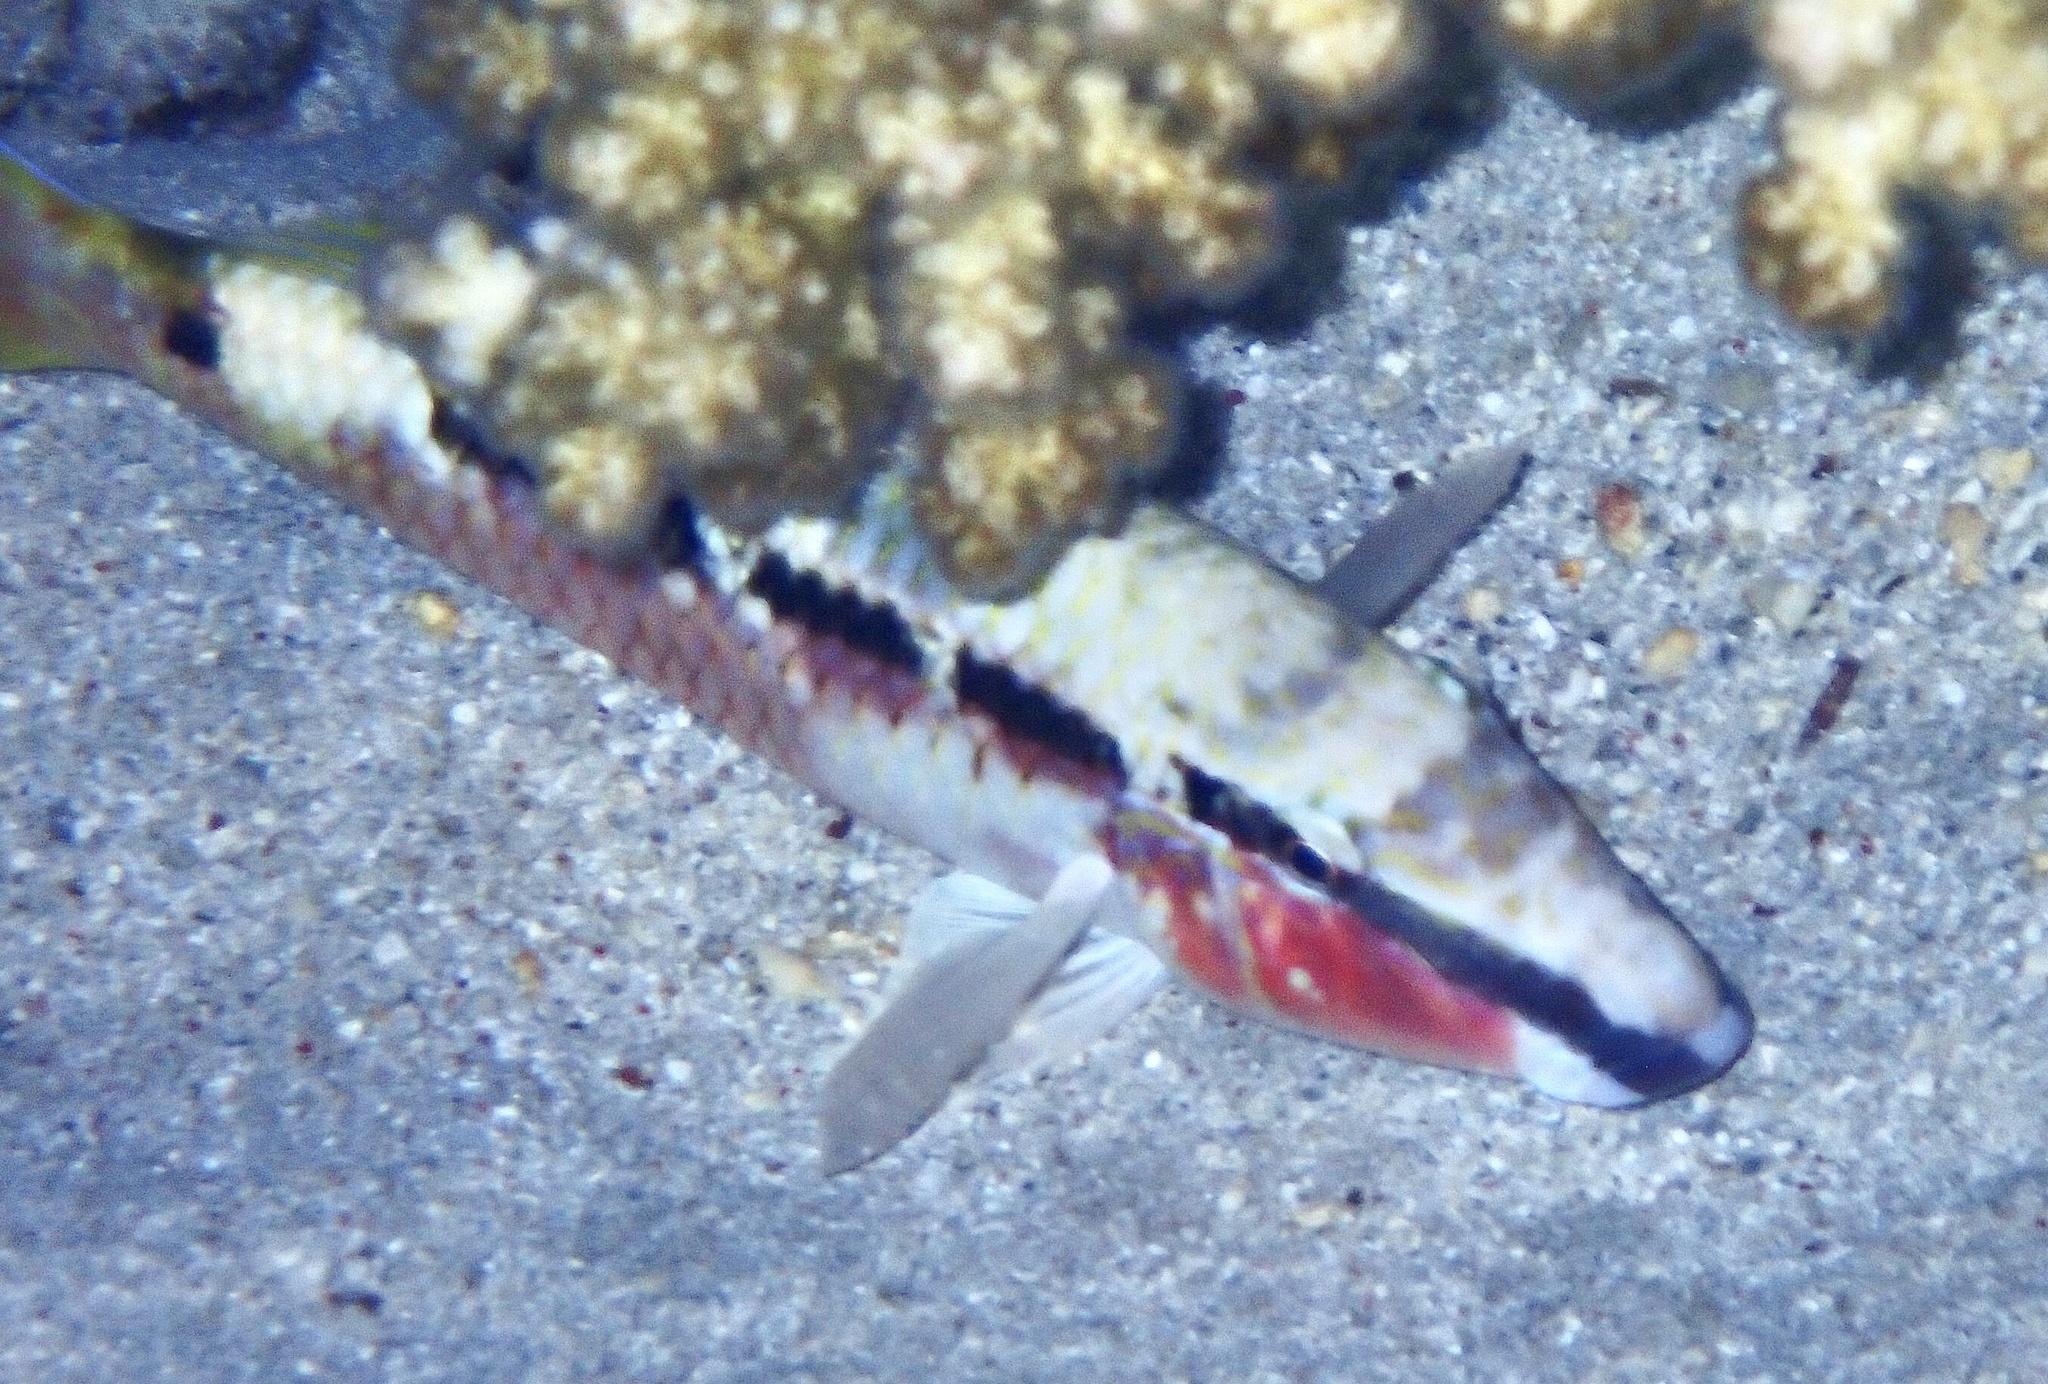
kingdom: Animalia
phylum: Chordata
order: Perciformes
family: Mullidae
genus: Parupeneus
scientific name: Parupeneus forsskali
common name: Red sea goatfish
